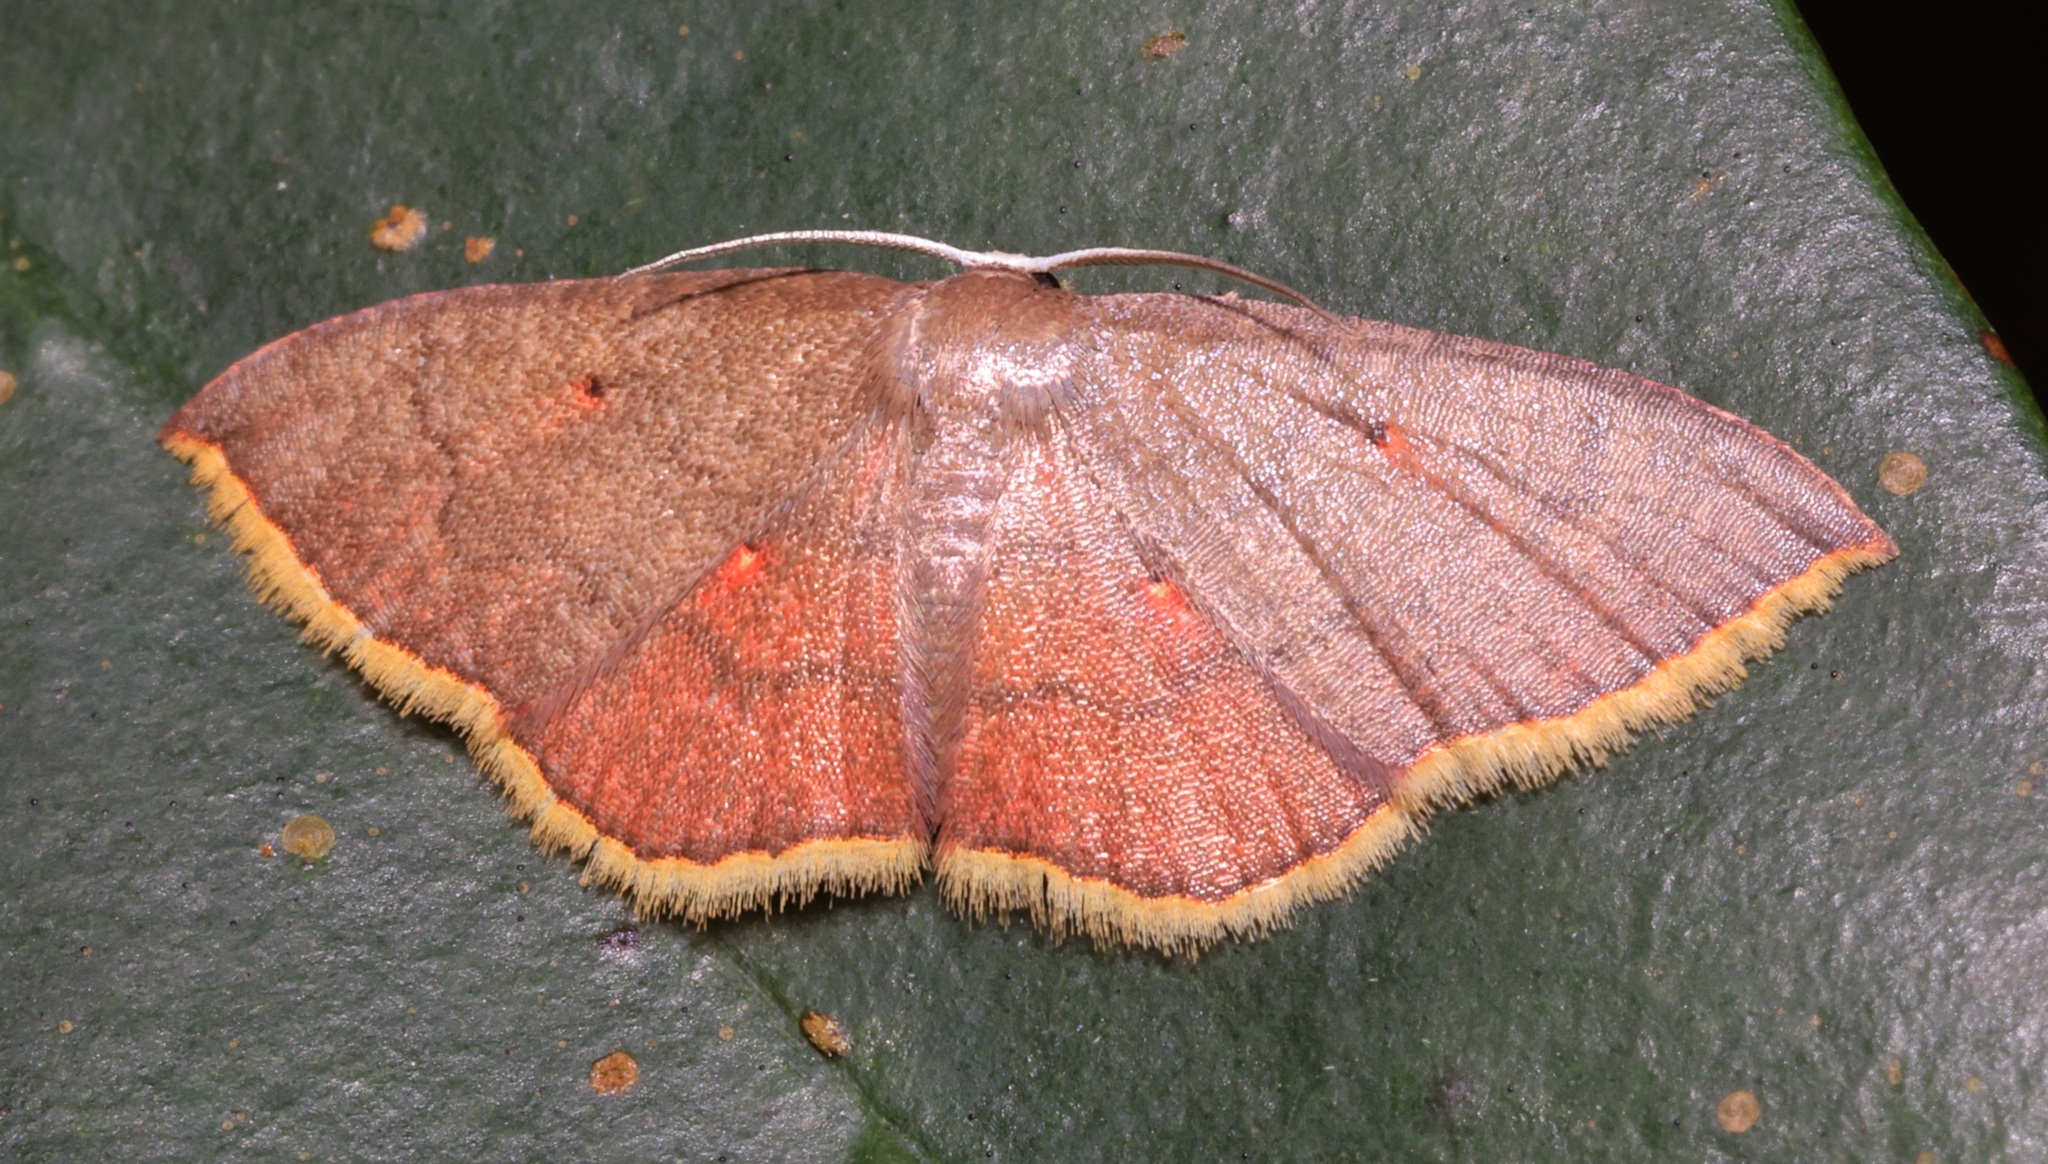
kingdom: Animalia
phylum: Arthropoda
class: Insecta
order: Lepidoptera
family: Uraniidae
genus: Pseudhyria
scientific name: Pseudhyria rubra
